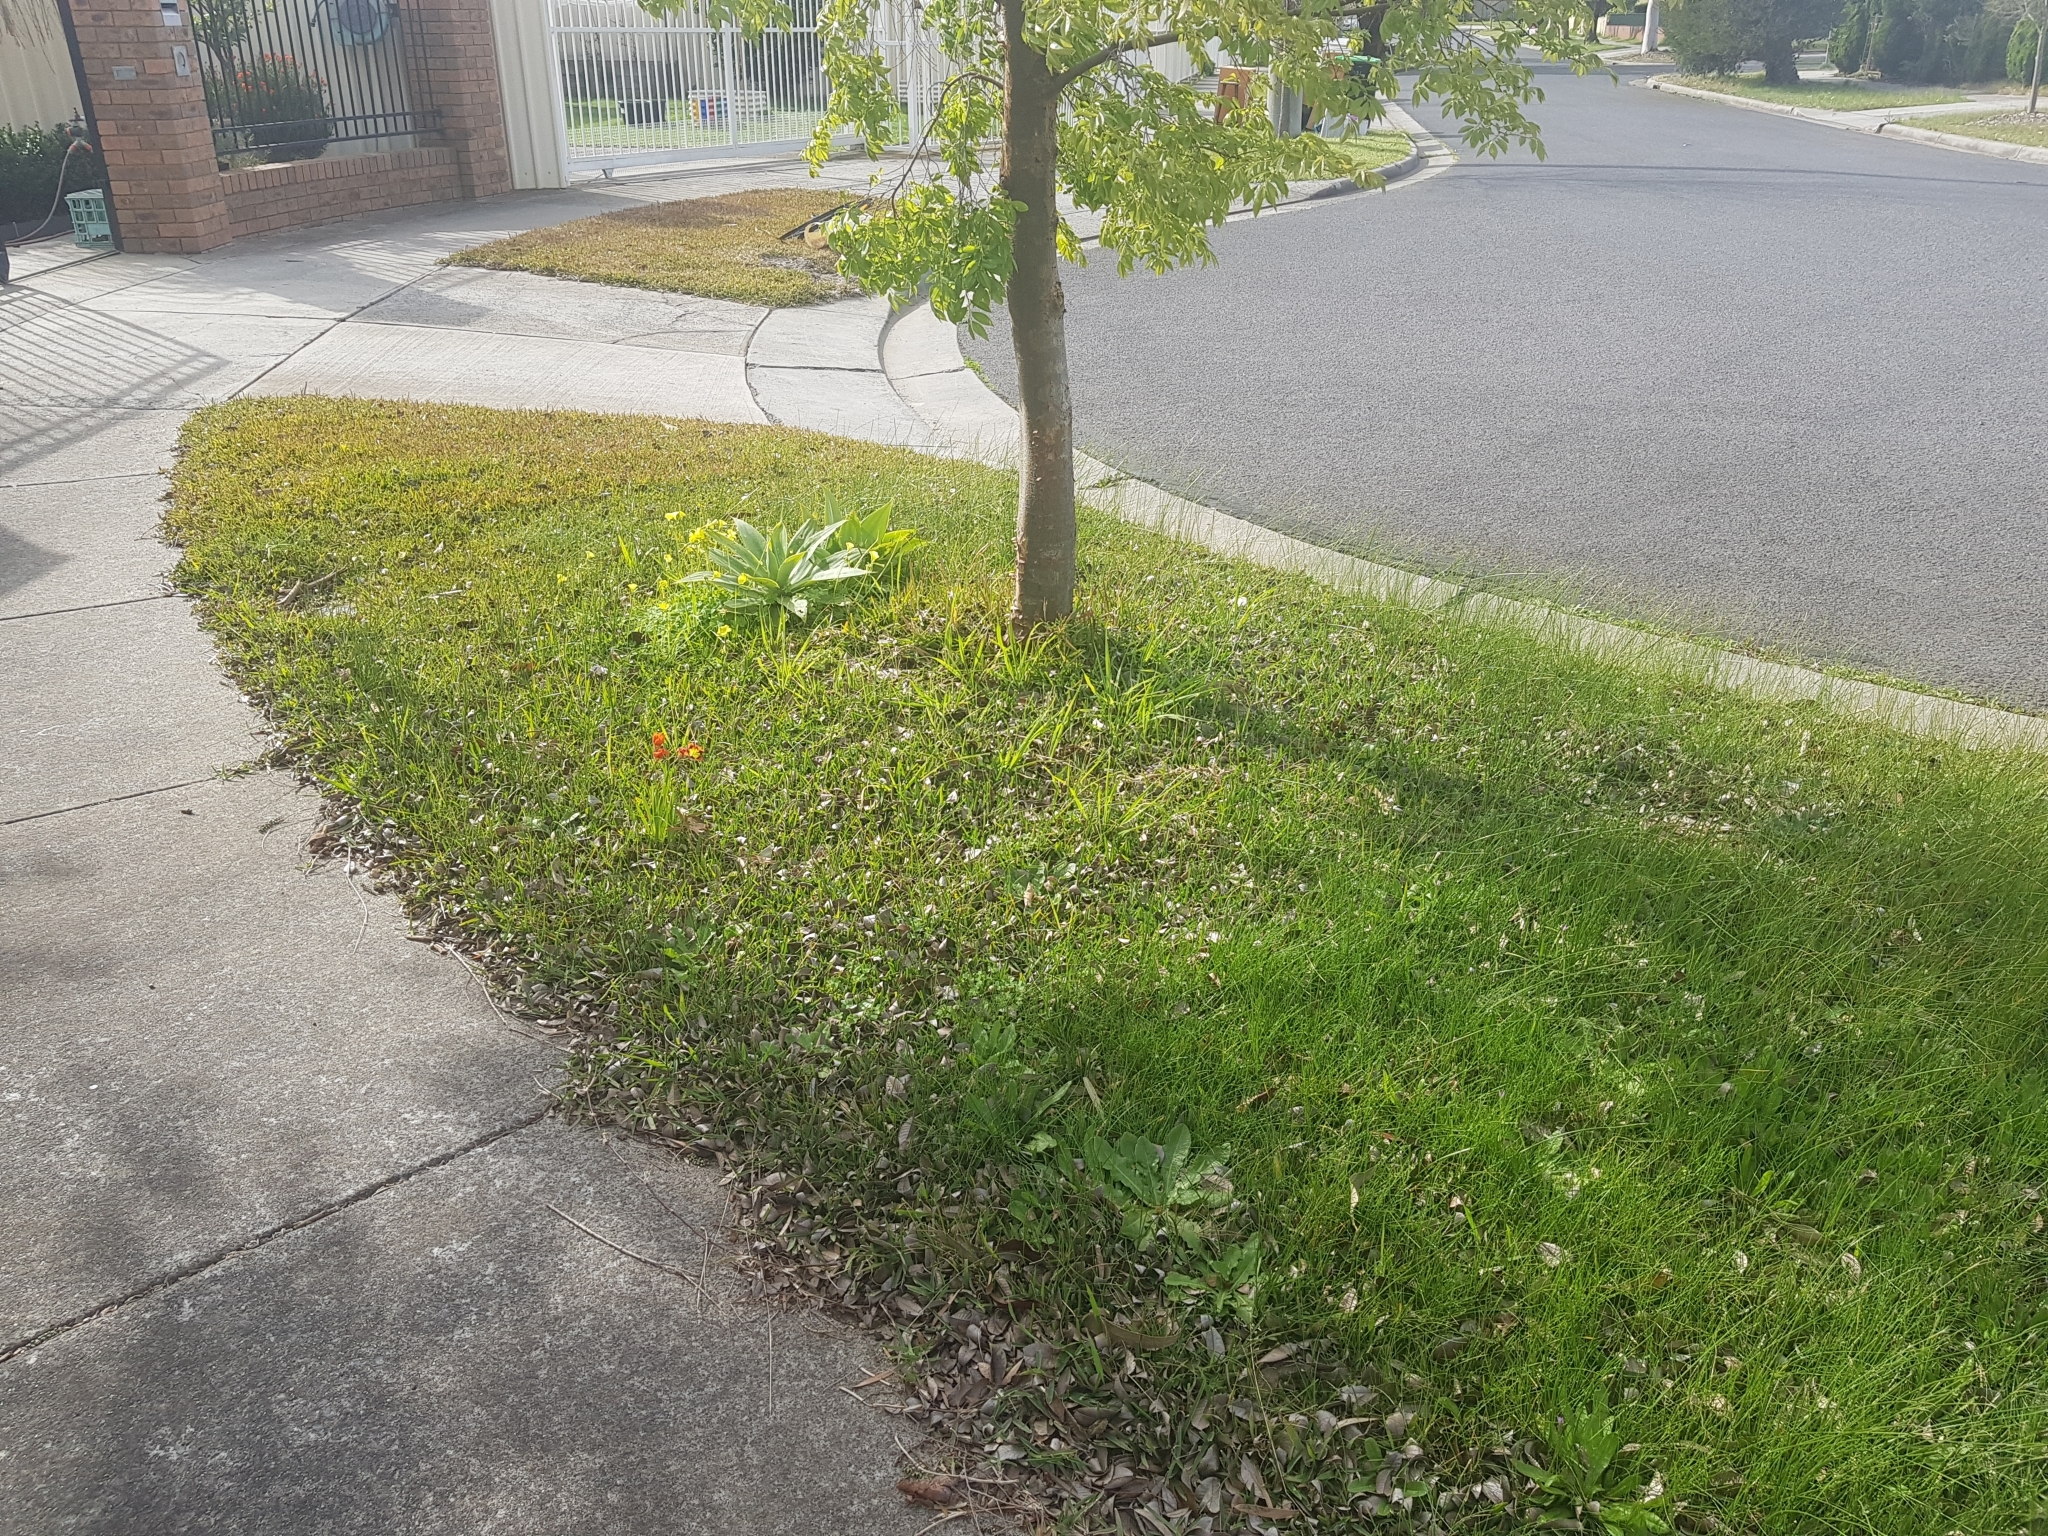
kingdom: Plantae
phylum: Tracheophyta
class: Liliopsida
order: Asparagales
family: Iridaceae
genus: Sparaxis
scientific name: Sparaxis tricolor
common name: Wandflower
